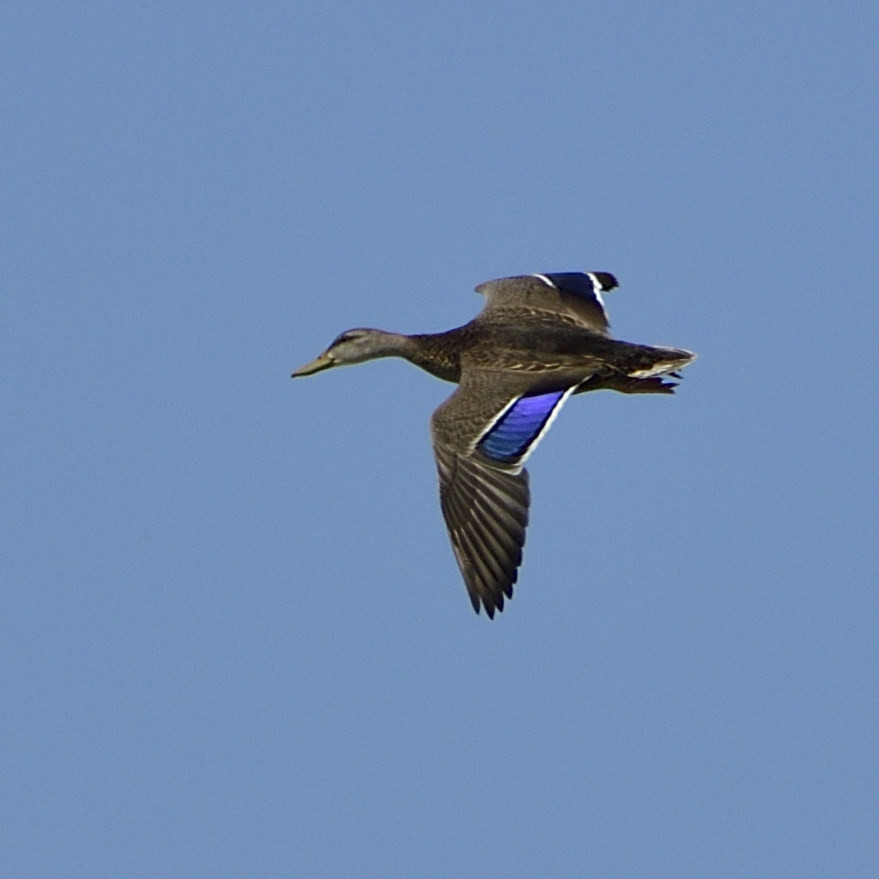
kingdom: Animalia
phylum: Chordata
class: Aves
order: Anseriformes
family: Anatidae
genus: Anas
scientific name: Anas diazi
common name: Mexican duck
